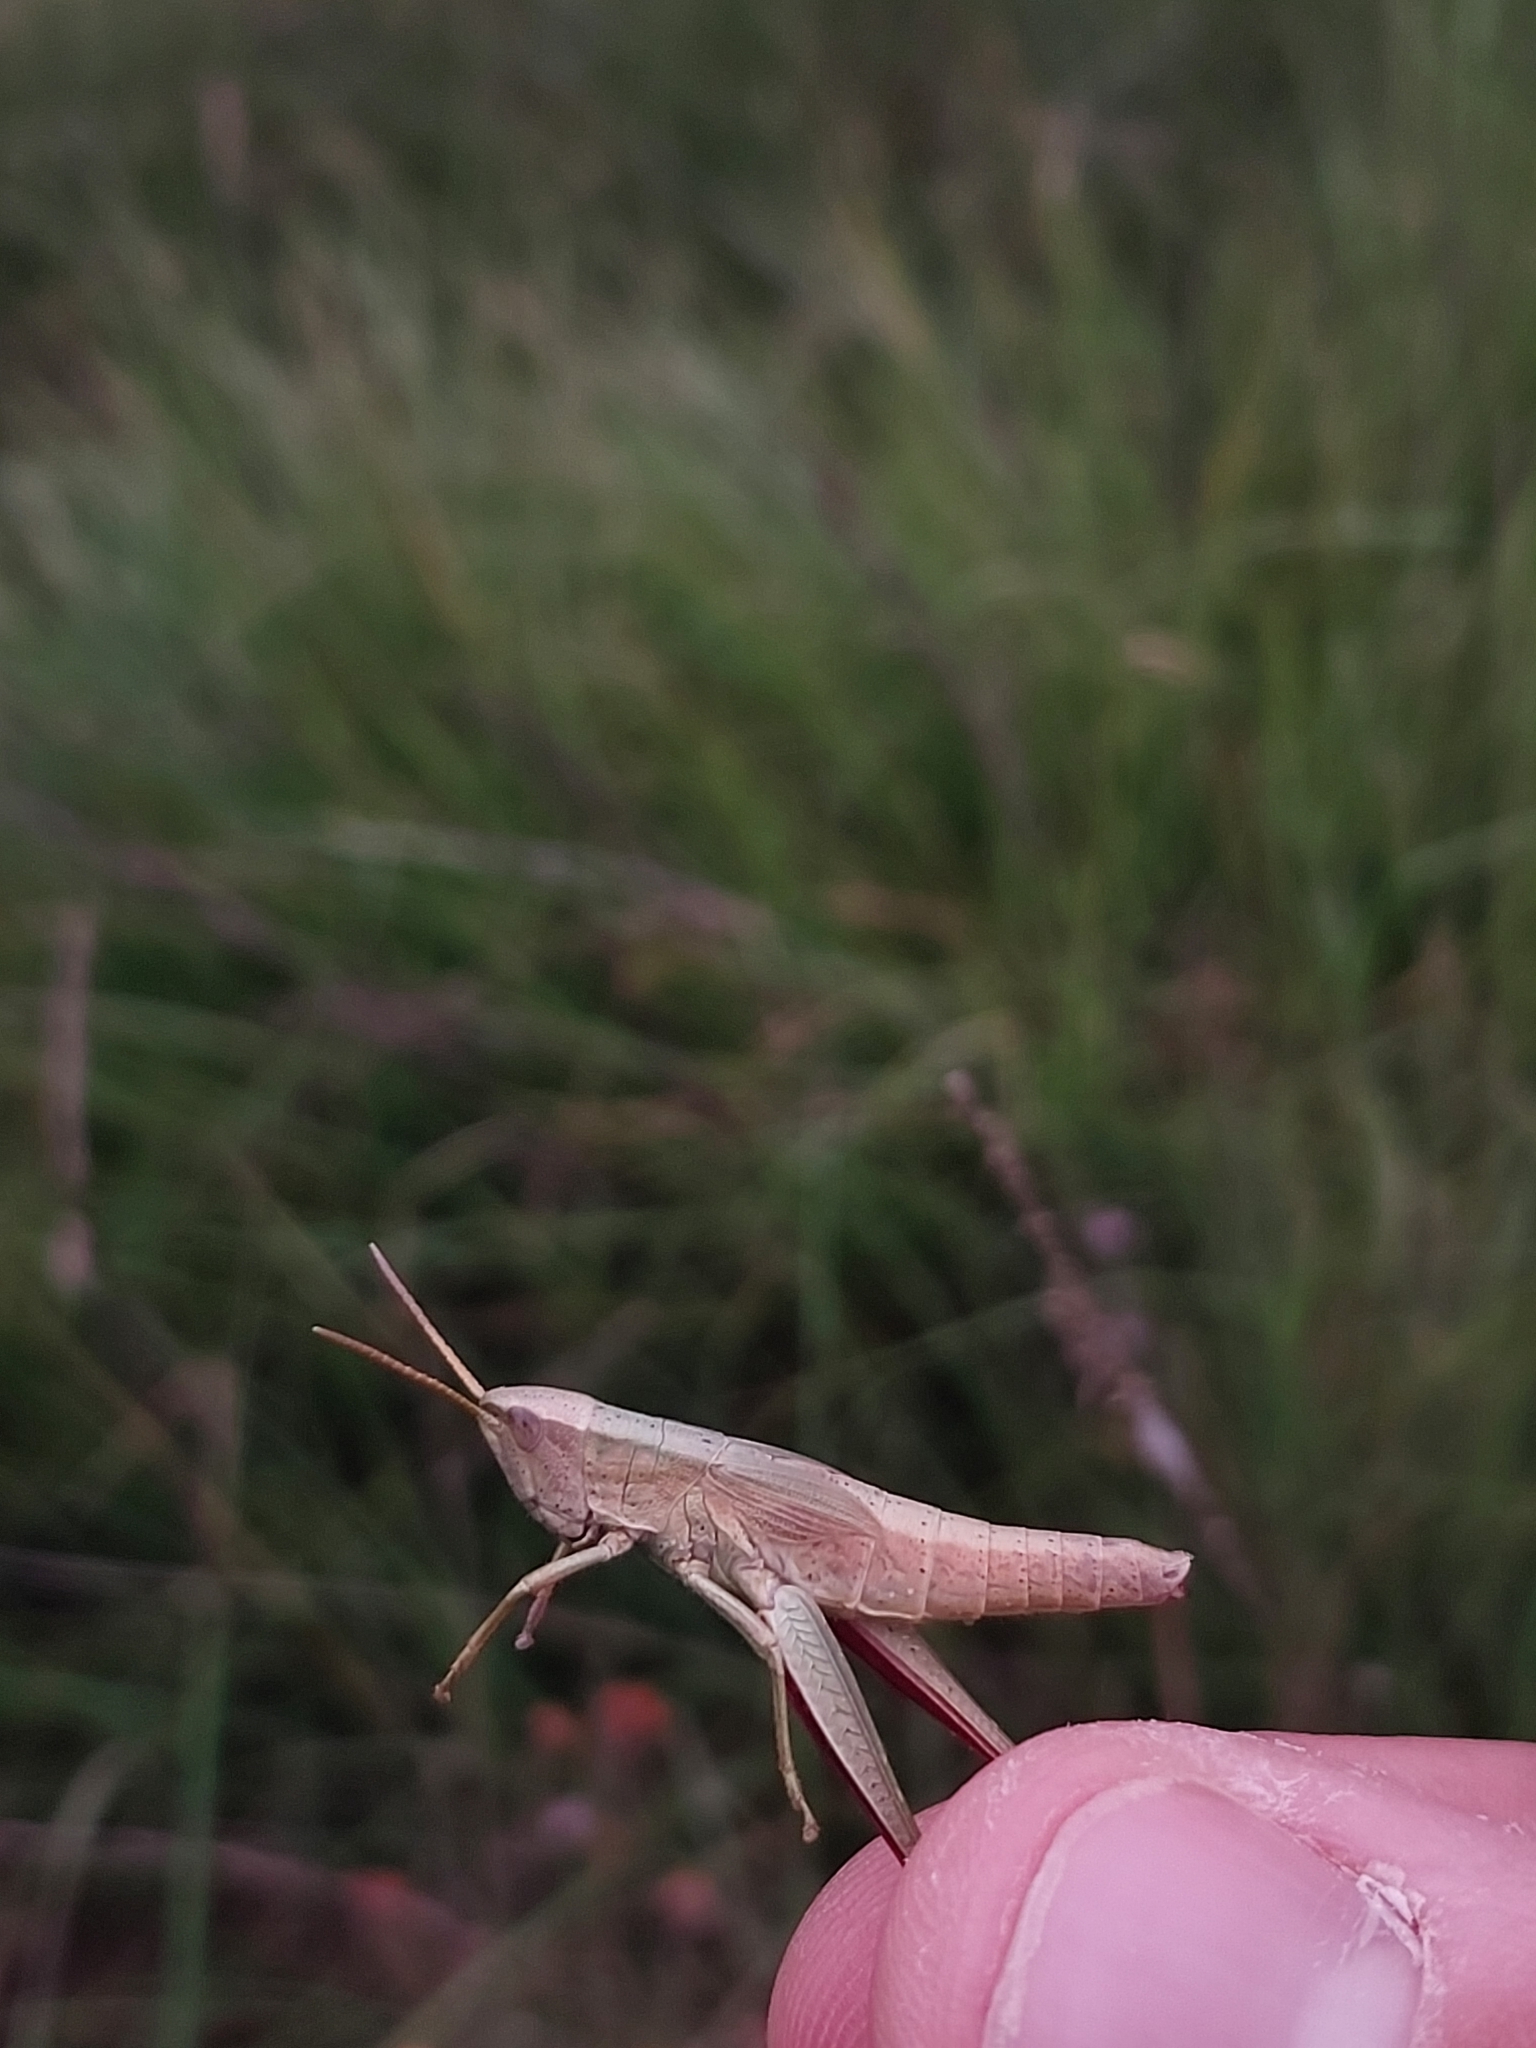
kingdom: Animalia
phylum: Arthropoda
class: Insecta
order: Orthoptera
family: Acrididae
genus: Chrysochraon
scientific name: Chrysochraon dispar
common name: Large gold grasshopper
